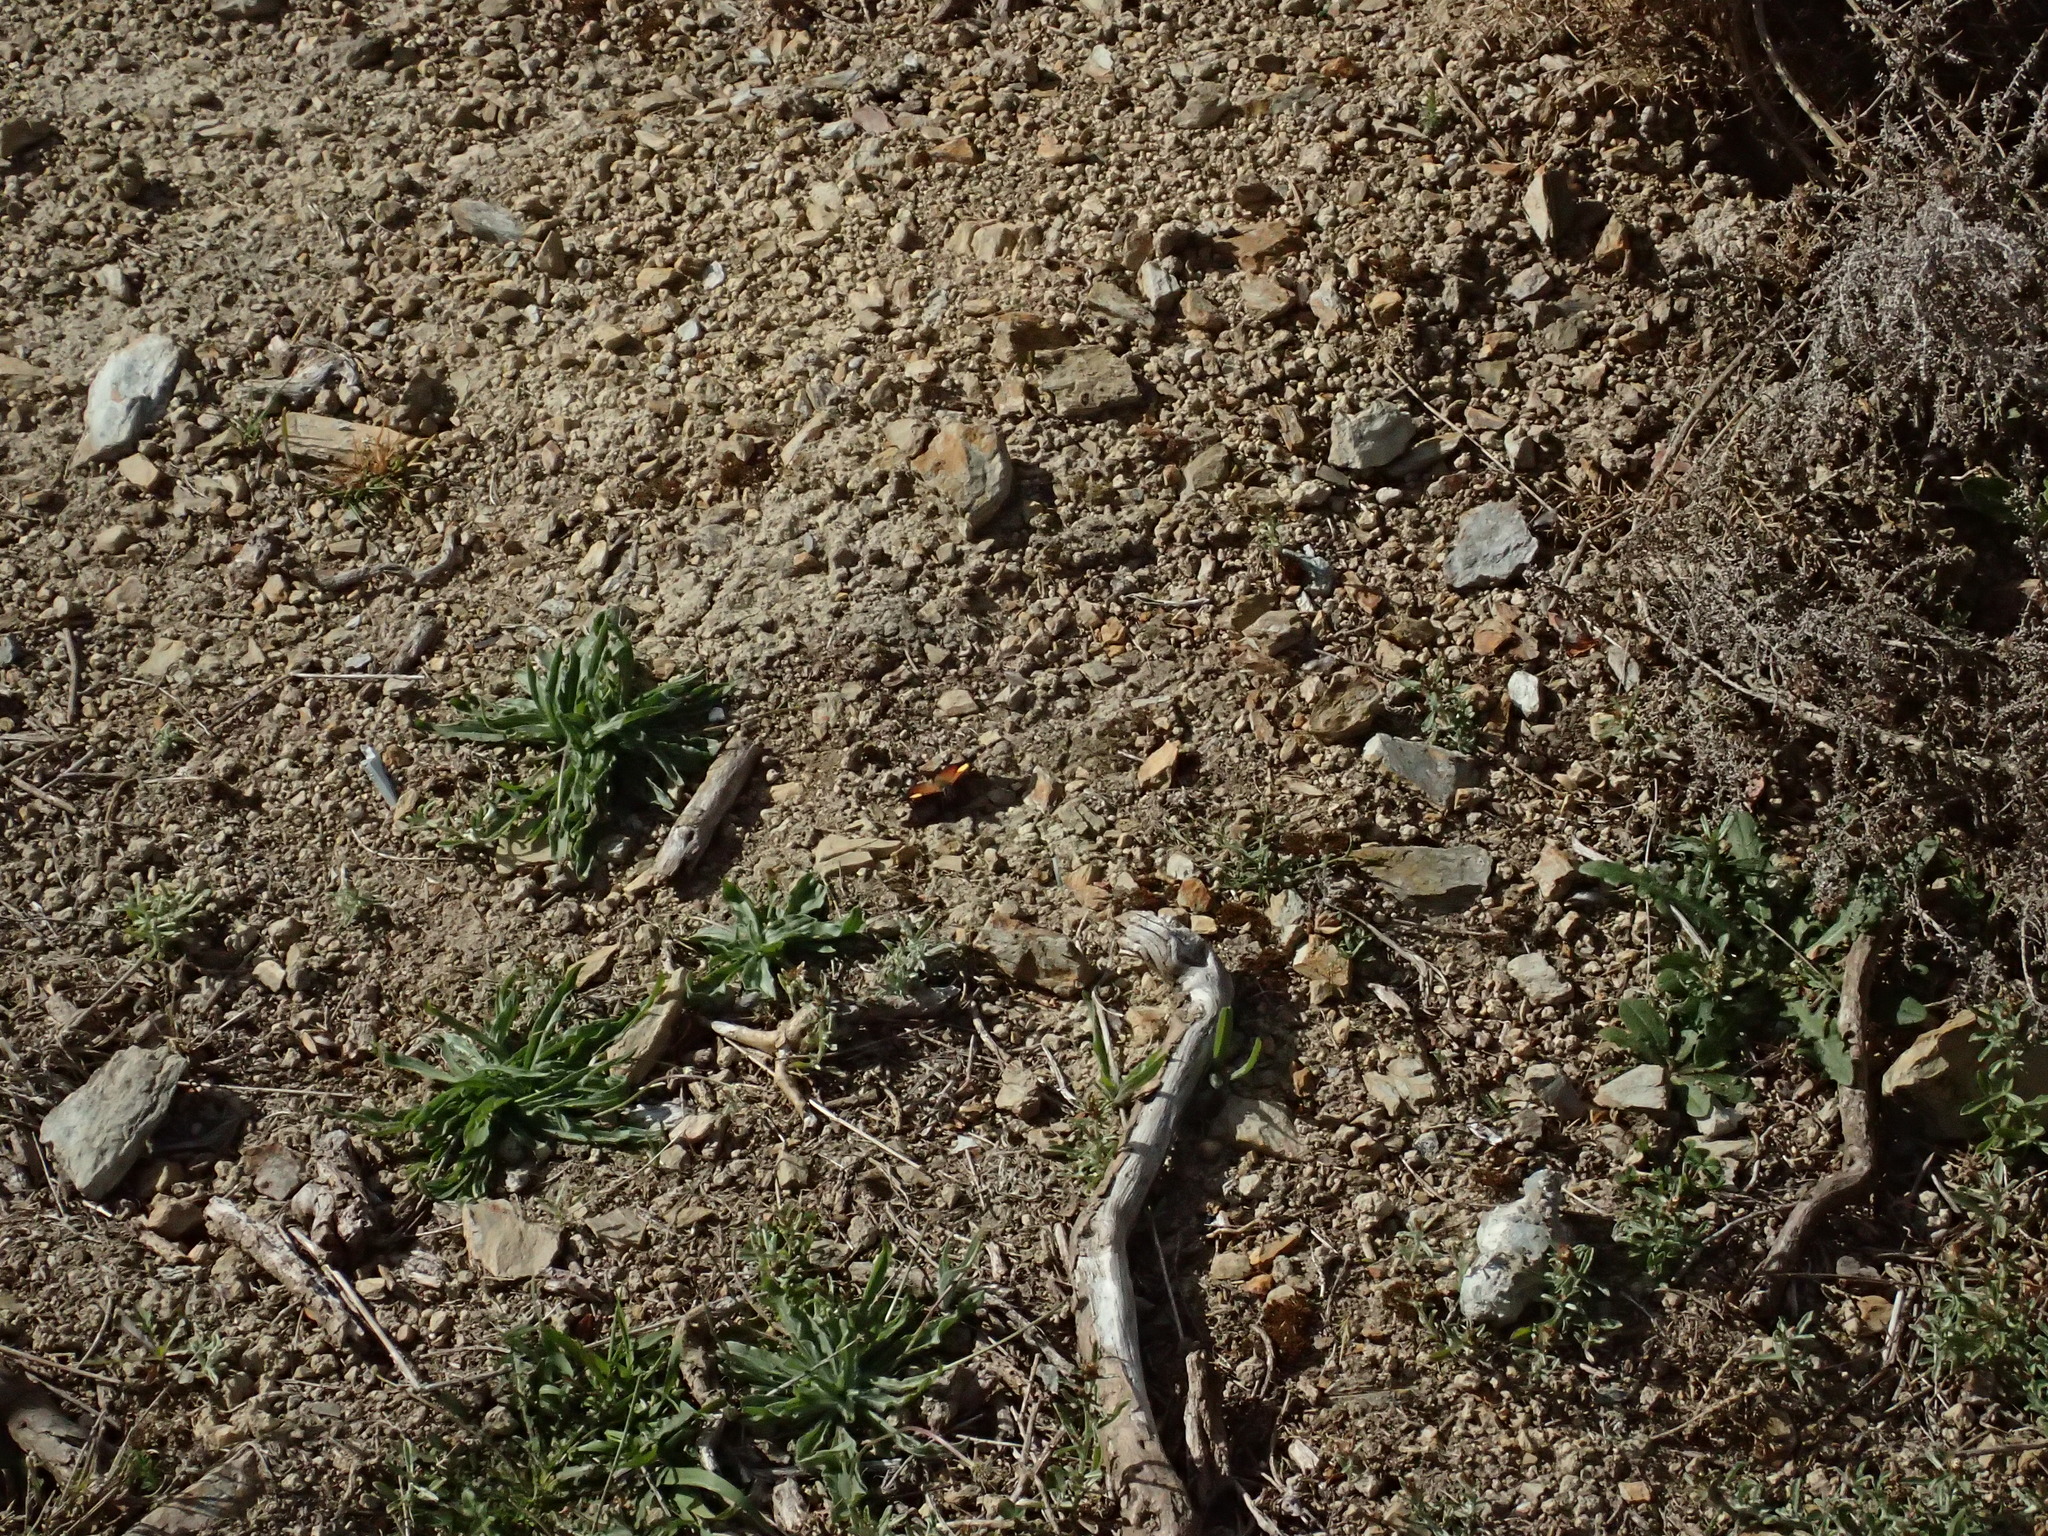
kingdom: Animalia
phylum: Arthropoda
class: Insecta
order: Lepidoptera
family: Nymphalidae
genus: Vanessa
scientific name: Vanessa itea
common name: Yellow admiral
